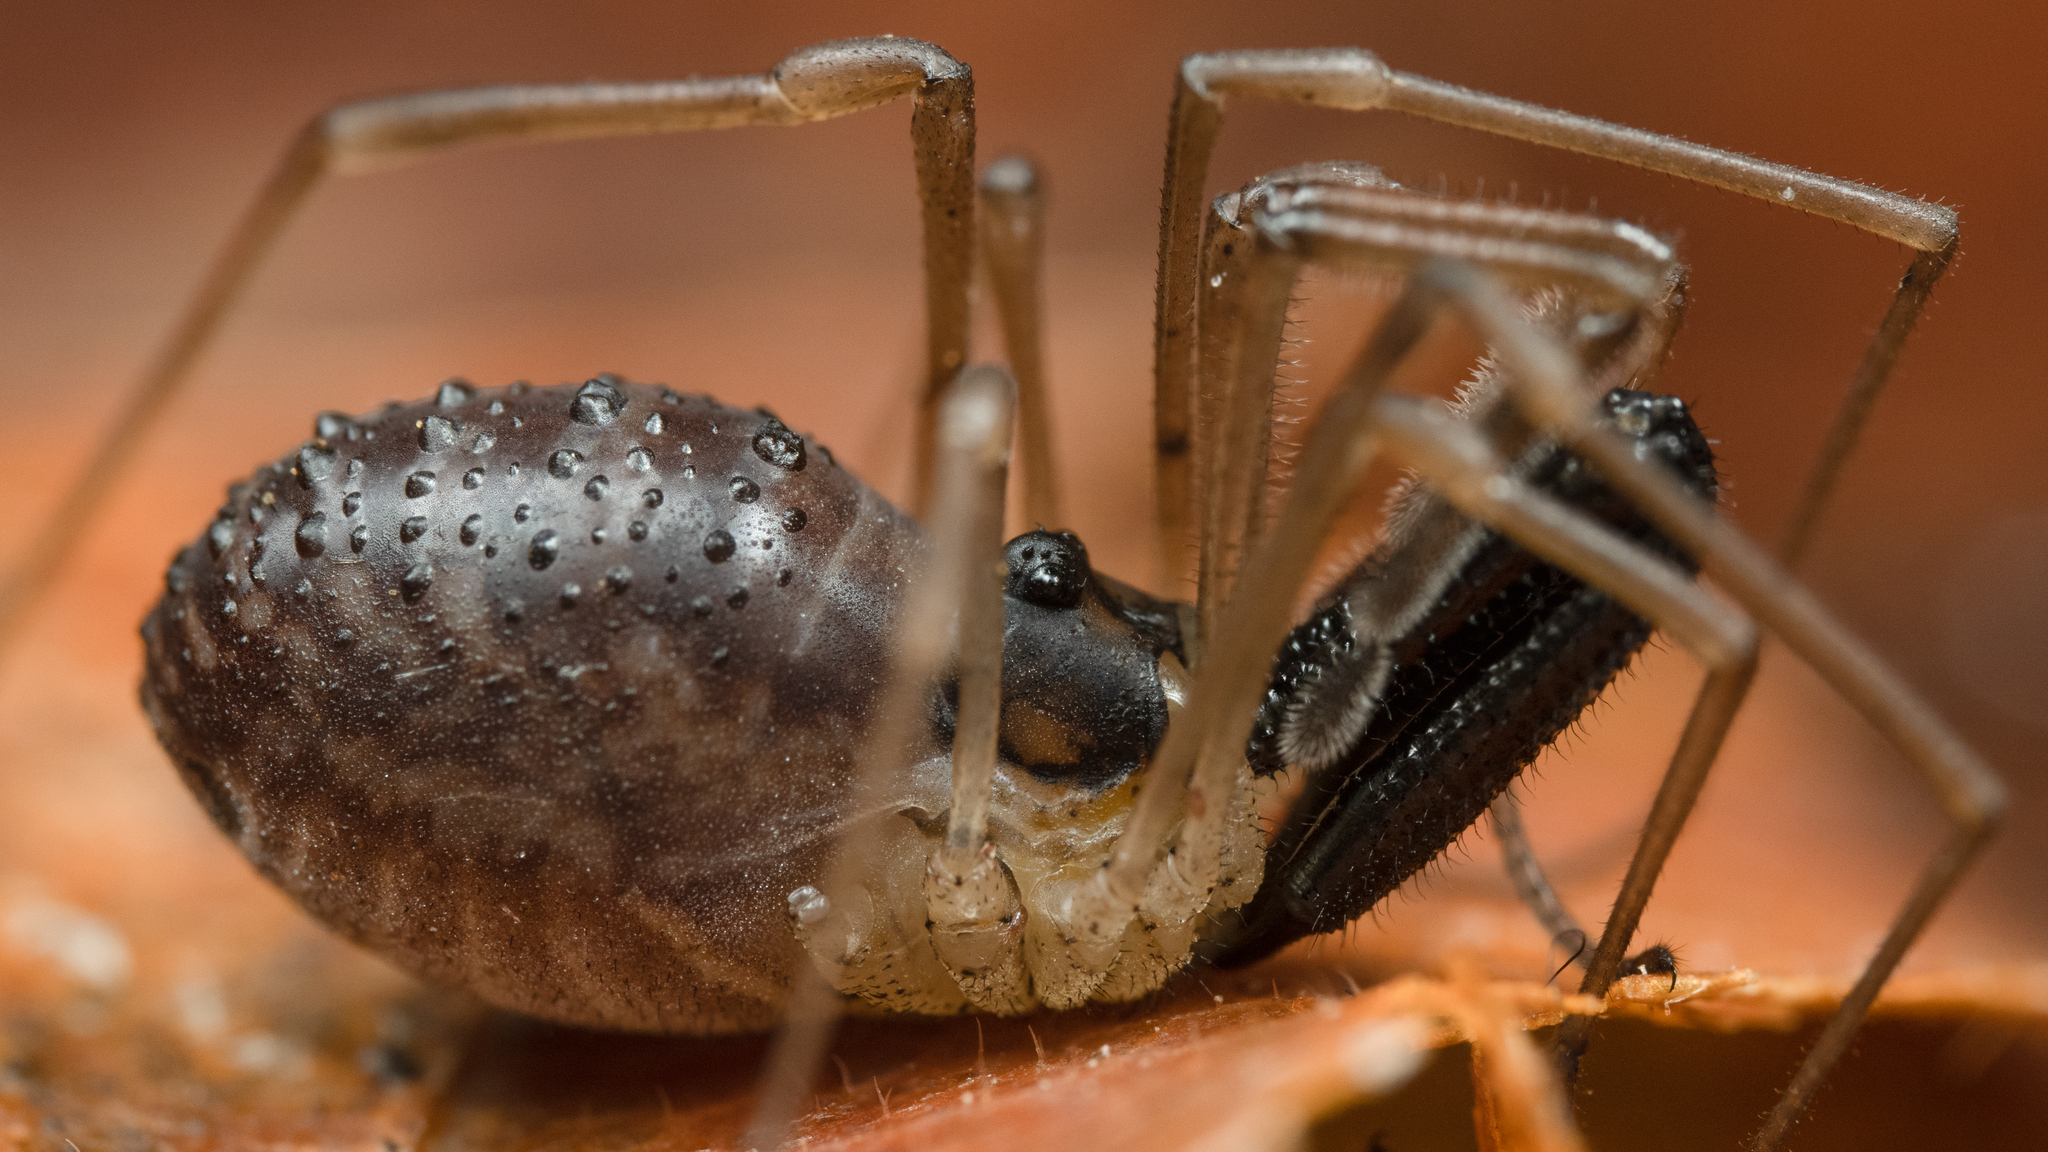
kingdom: Animalia
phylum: Arthropoda
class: Arachnida
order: Opiliones
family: Taracidae
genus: Taracus
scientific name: Taracus pallipes
